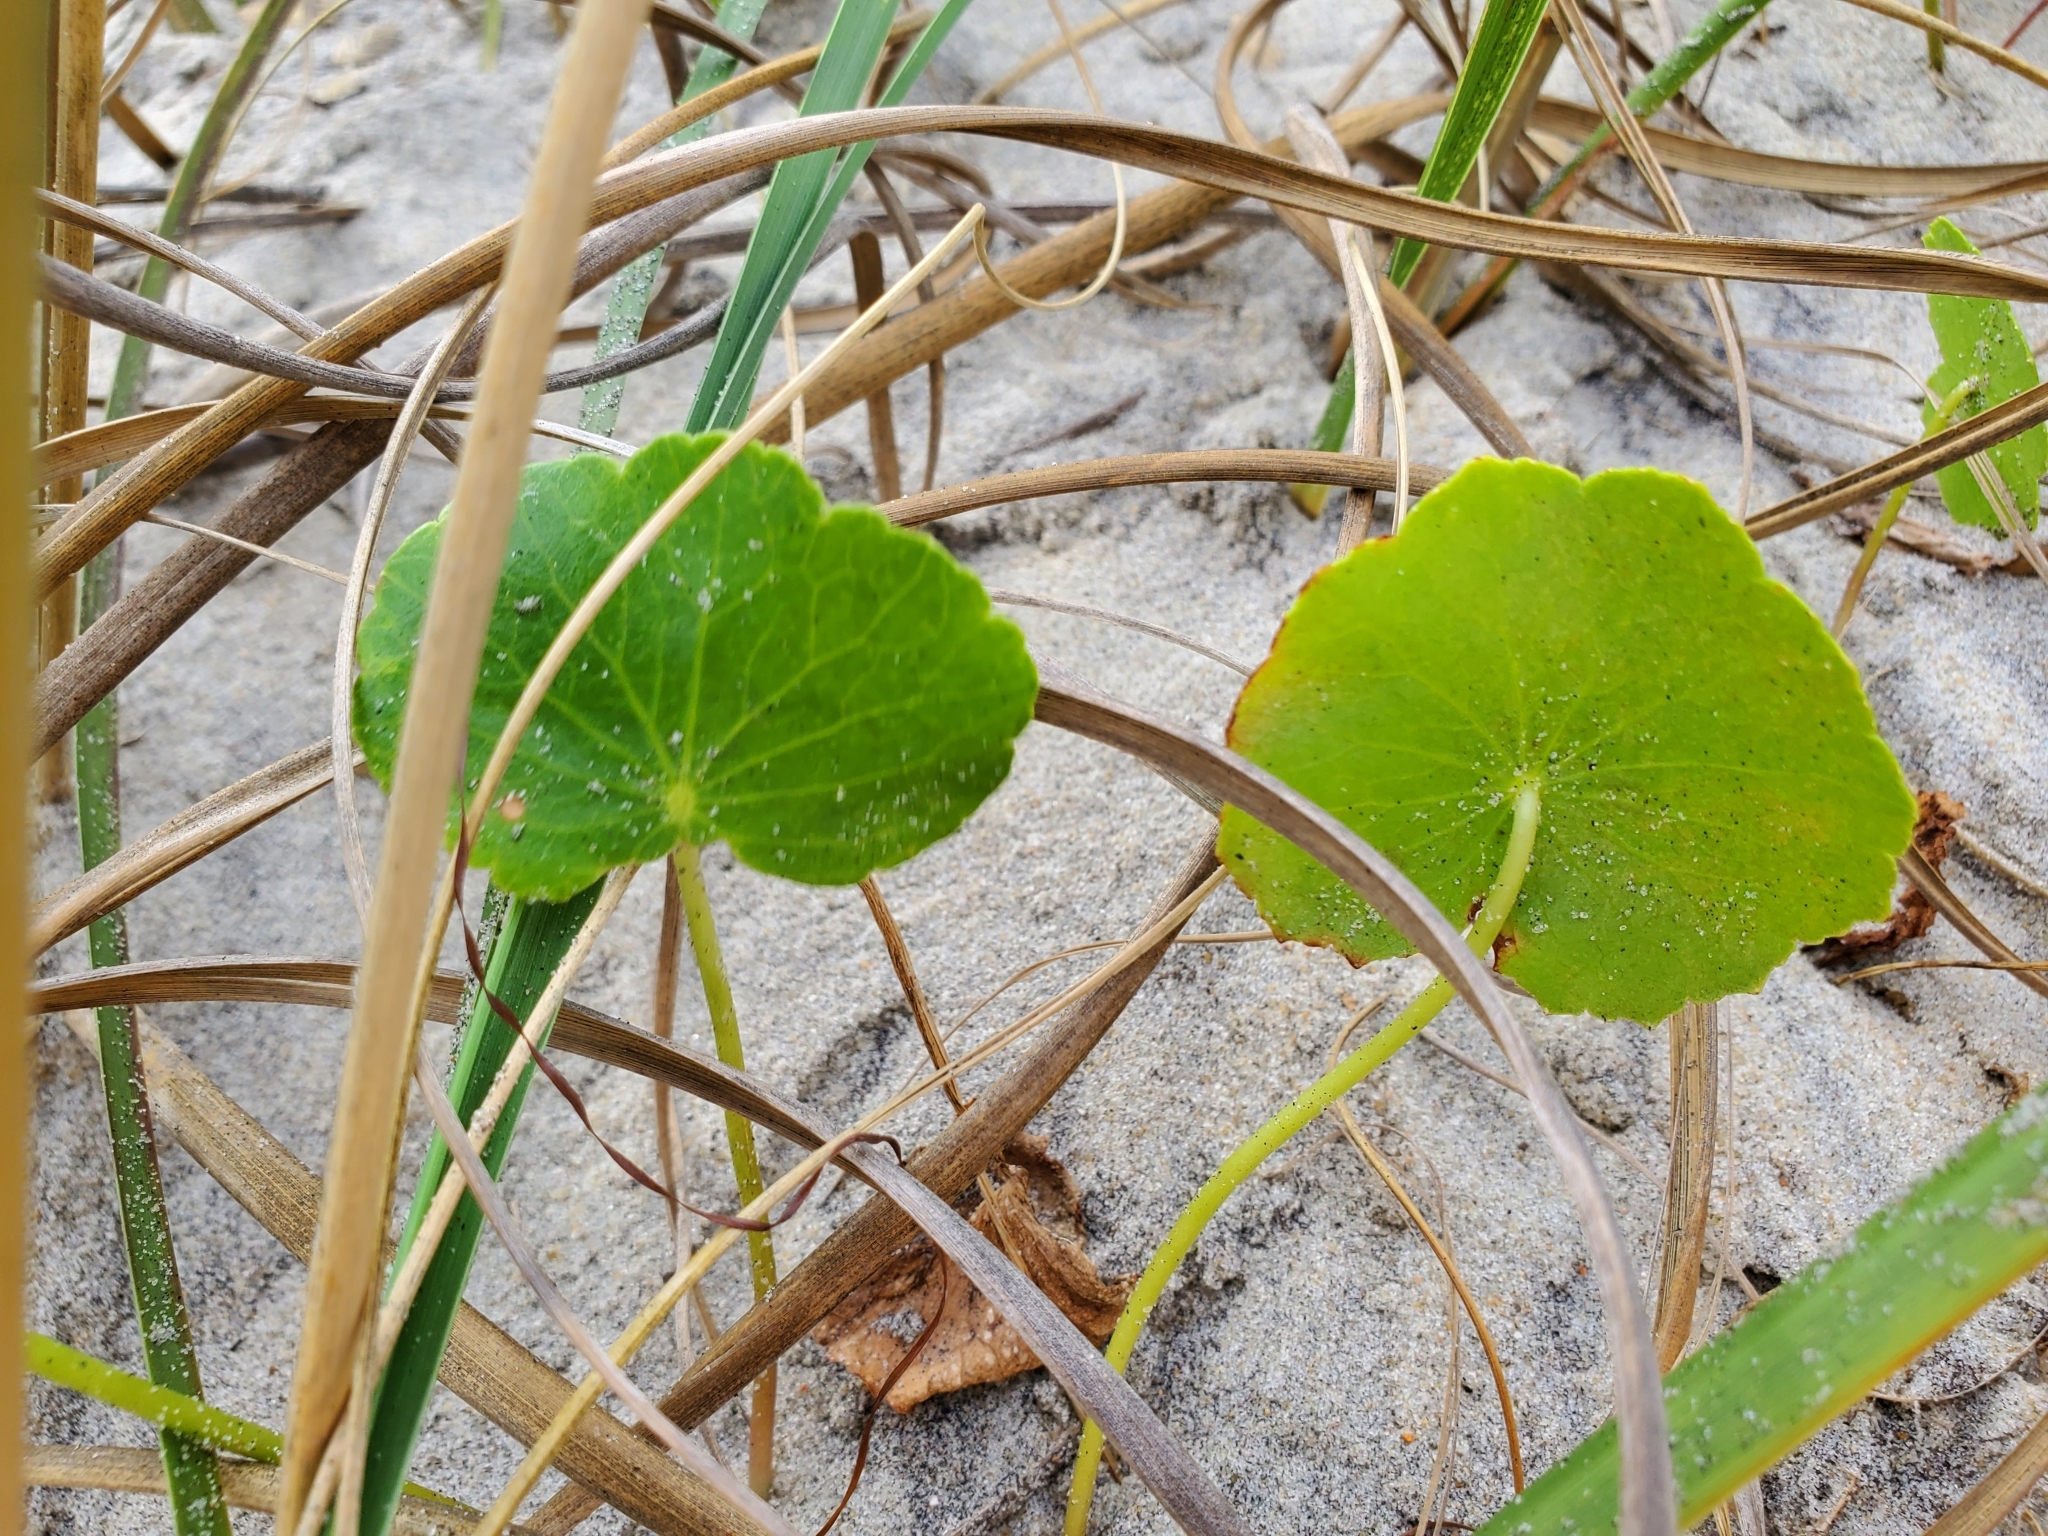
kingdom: Plantae
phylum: Tracheophyta
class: Magnoliopsida
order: Apiales
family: Araliaceae
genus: Hydrocotyle
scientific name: Hydrocotyle bonariensis
